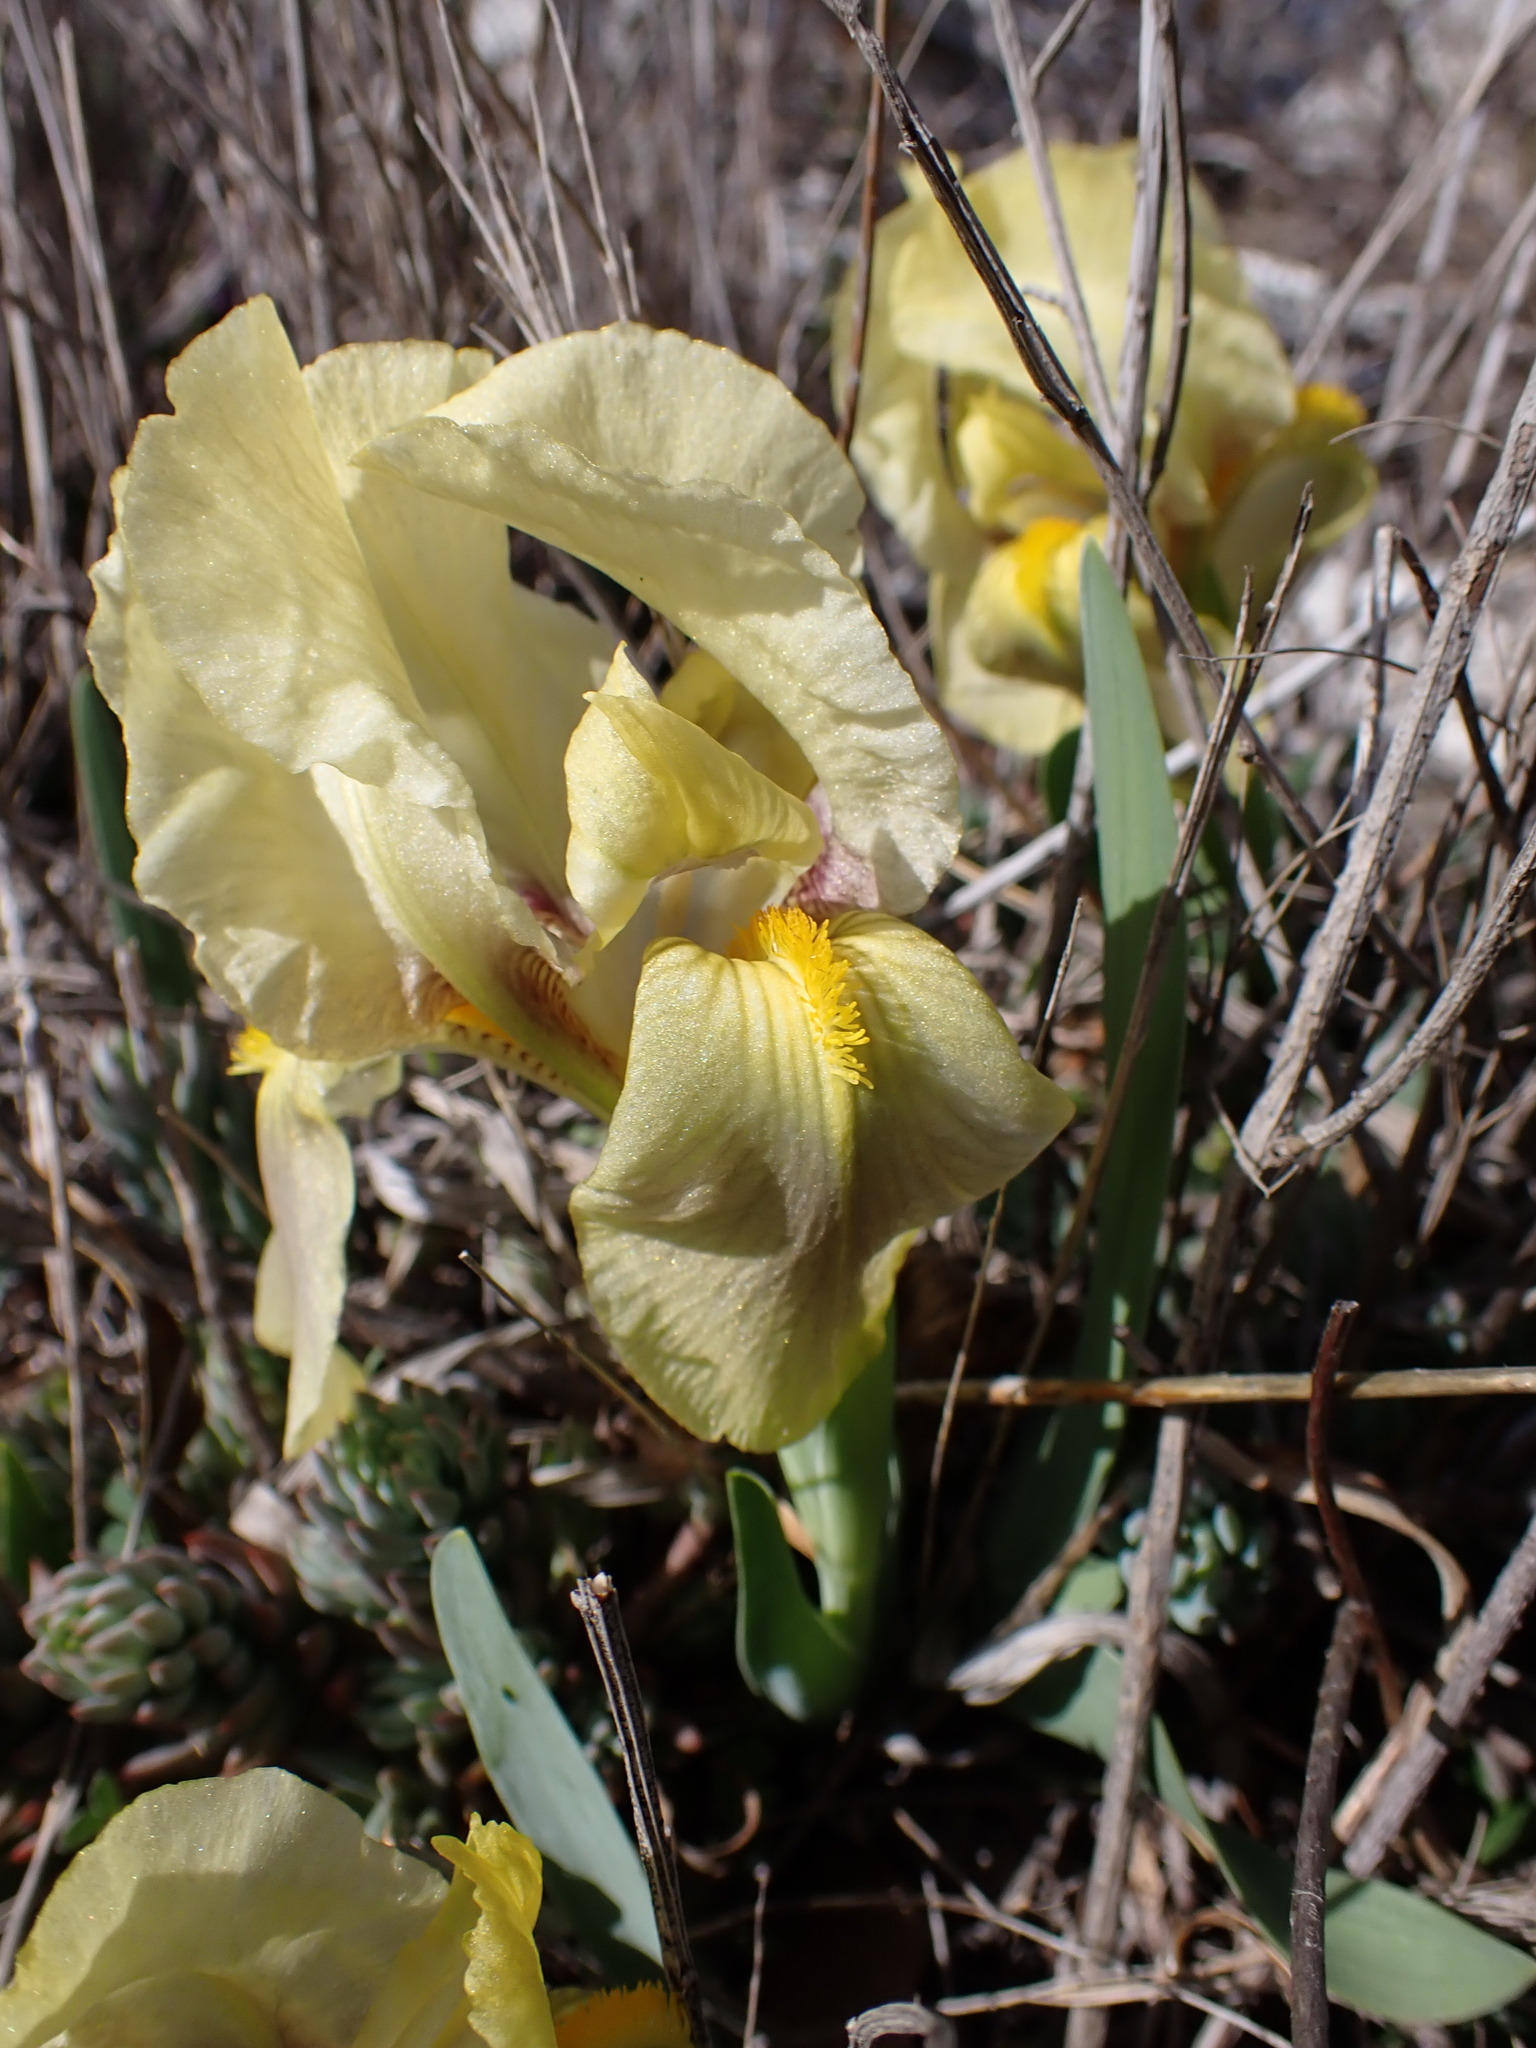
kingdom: Plantae
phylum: Tracheophyta
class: Liliopsida
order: Asparagales
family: Iridaceae
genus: Iris
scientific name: Iris lutescens
